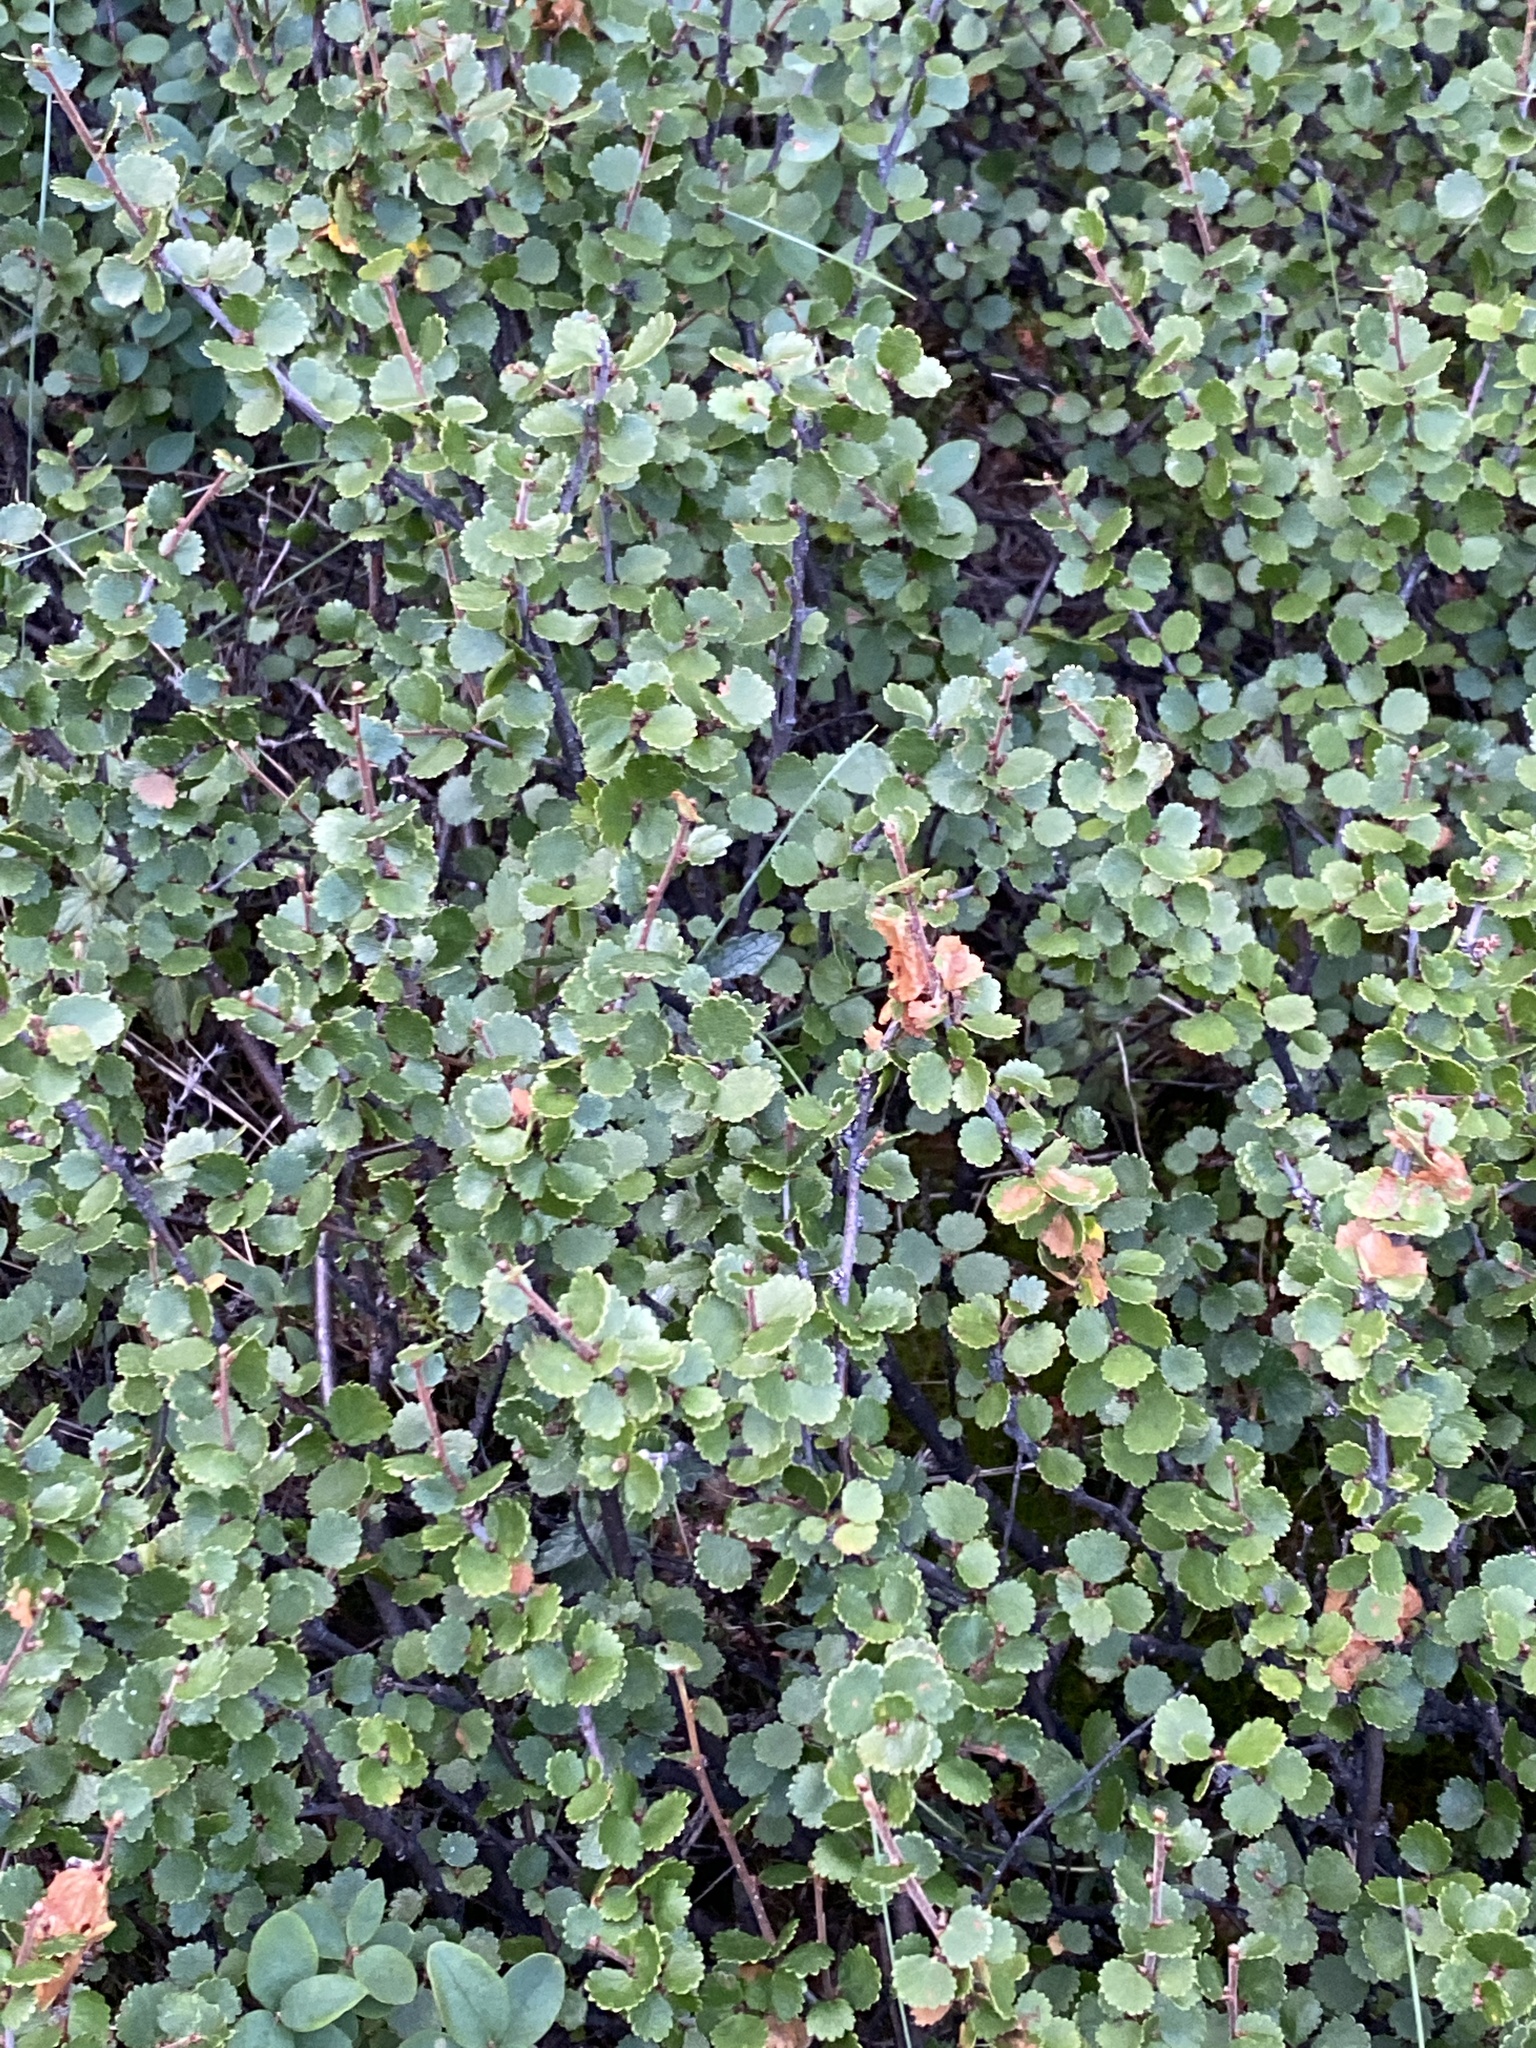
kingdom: Plantae
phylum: Tracheophyta
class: Magnoliopsida
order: Fagales
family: Betulaceae
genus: Betula
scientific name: Betula nana
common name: Arctic dwarf birch
